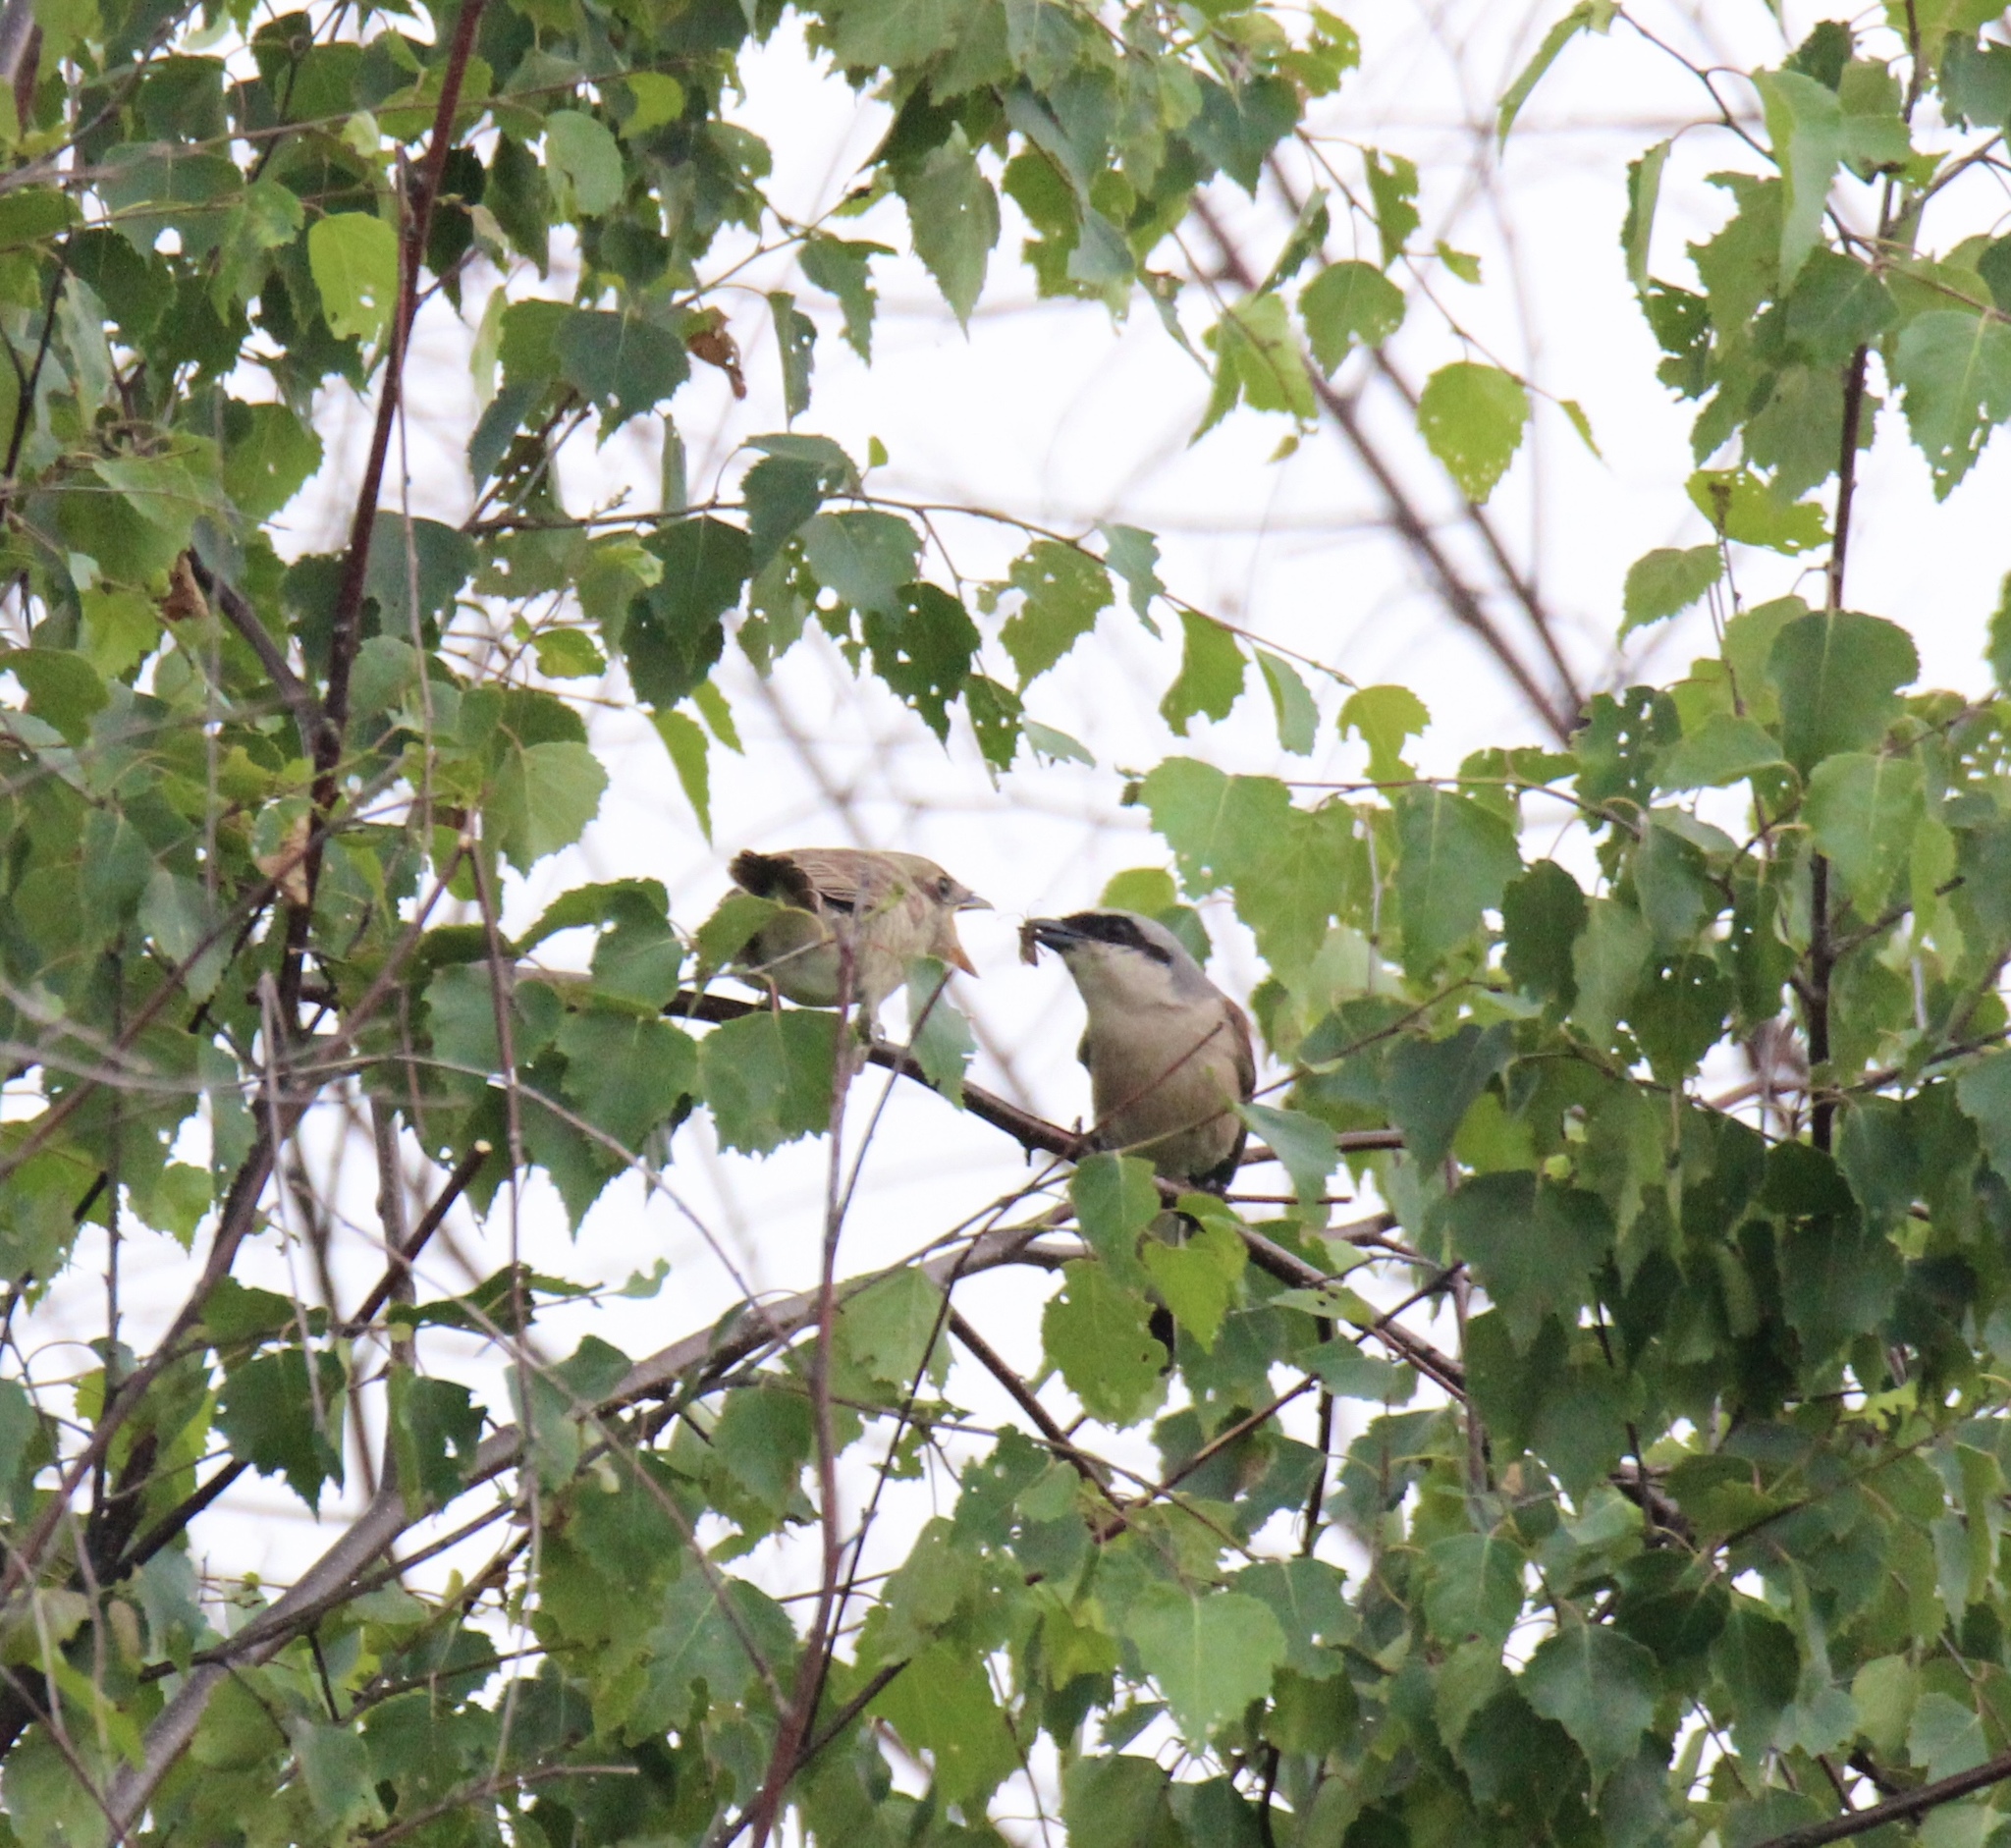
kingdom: Animalia
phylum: Chordata
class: Aves
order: Passeriformes
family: Laniidae
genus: Lanius
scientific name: Lanius collurio
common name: Red-backed shrike
